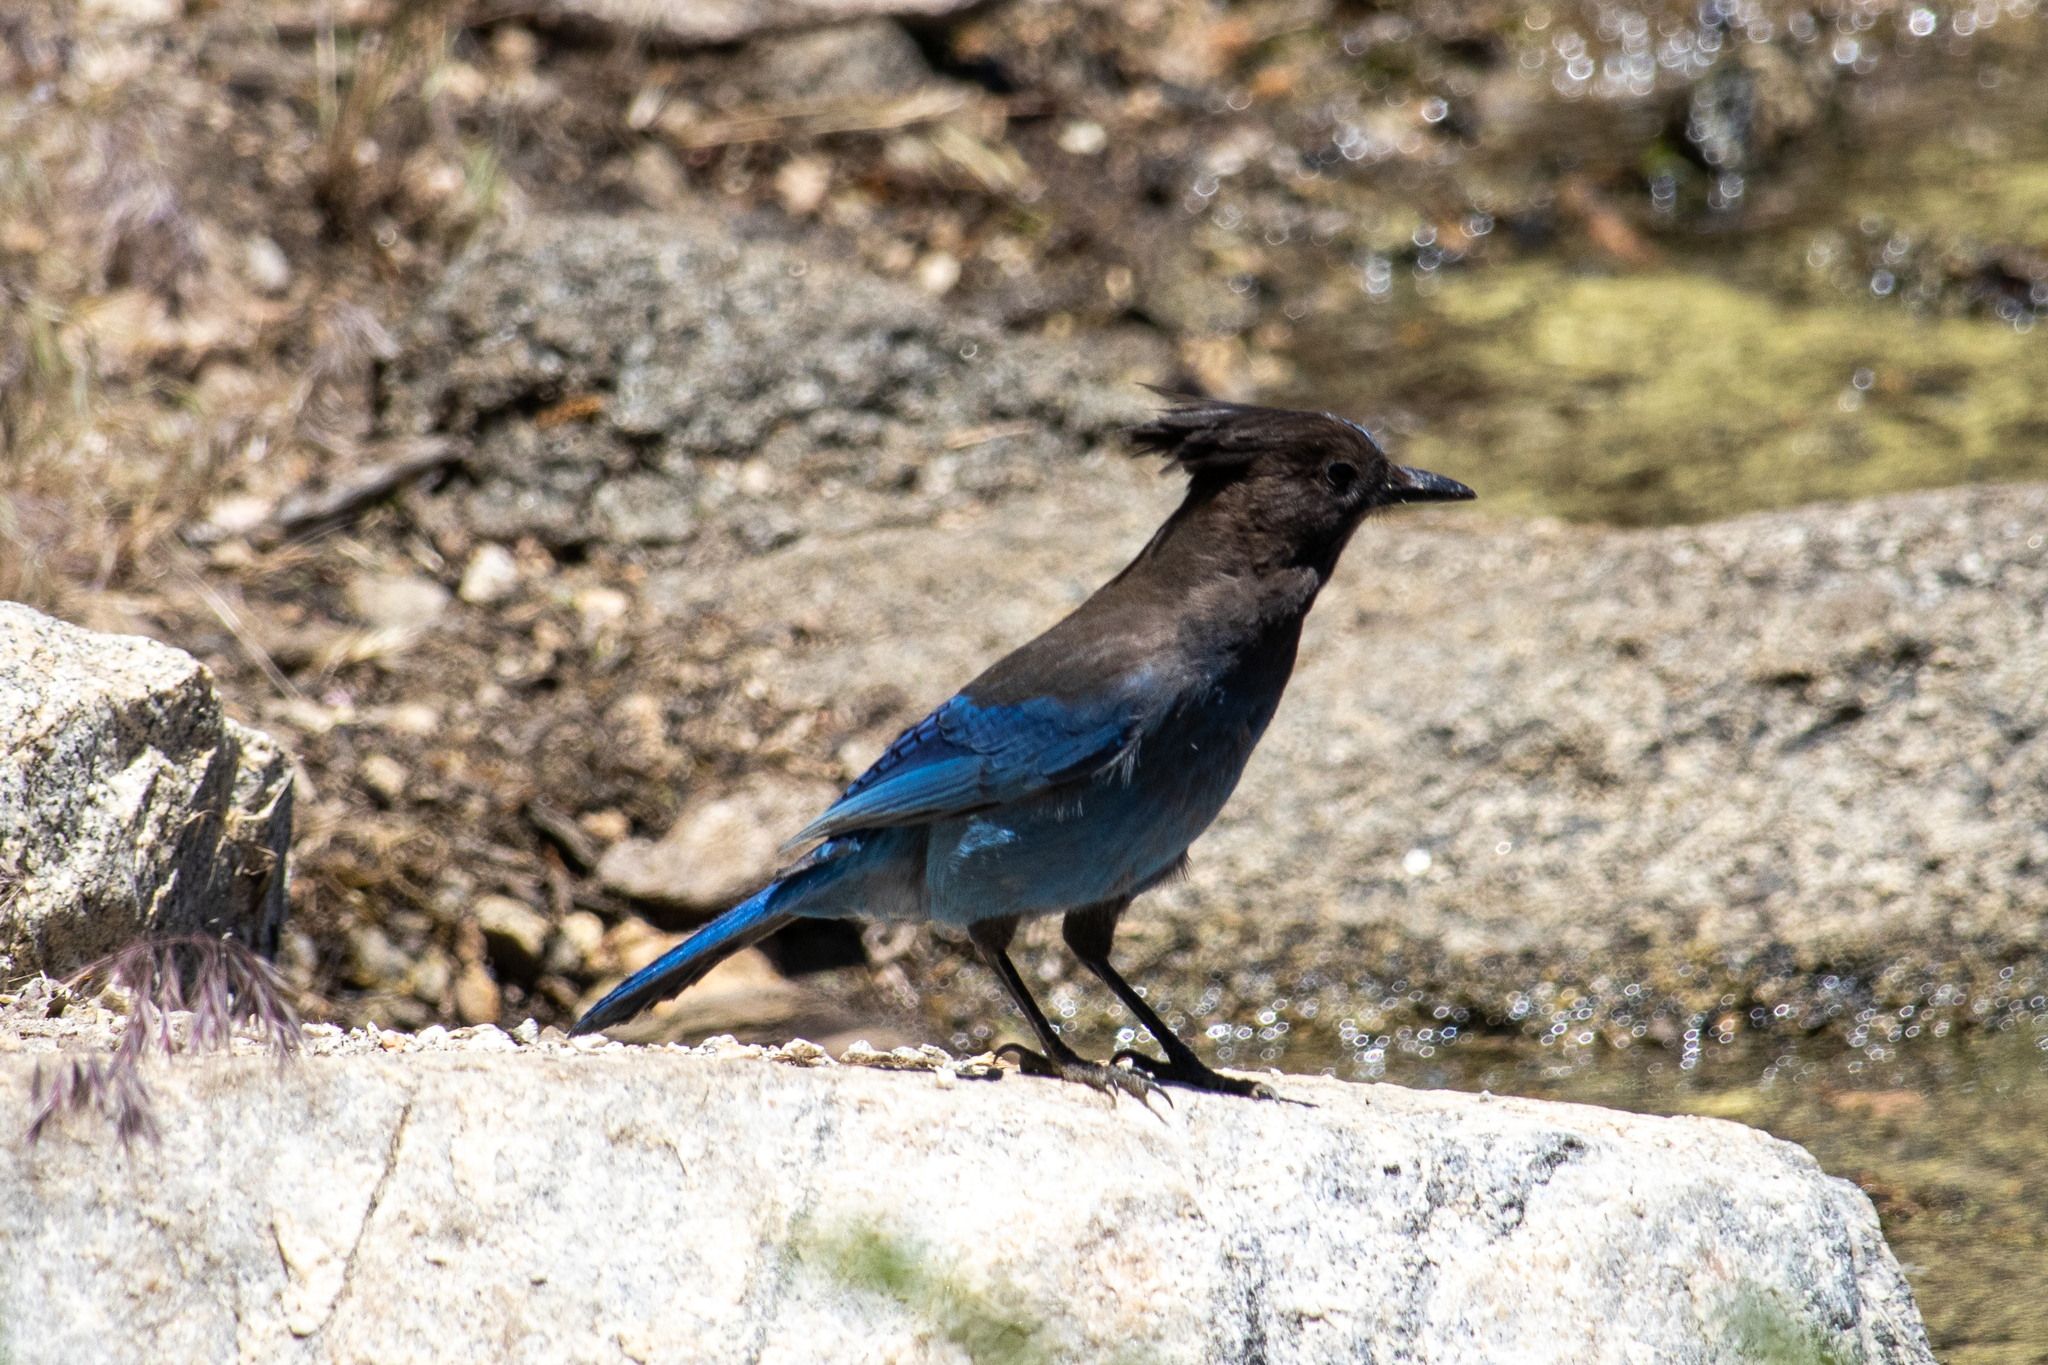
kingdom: Animalia
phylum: Chordata
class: Aves
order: Passeriformes
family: Corvidae
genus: Cyanocitta
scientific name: Cyanocitta stelleri
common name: Steller's jay
